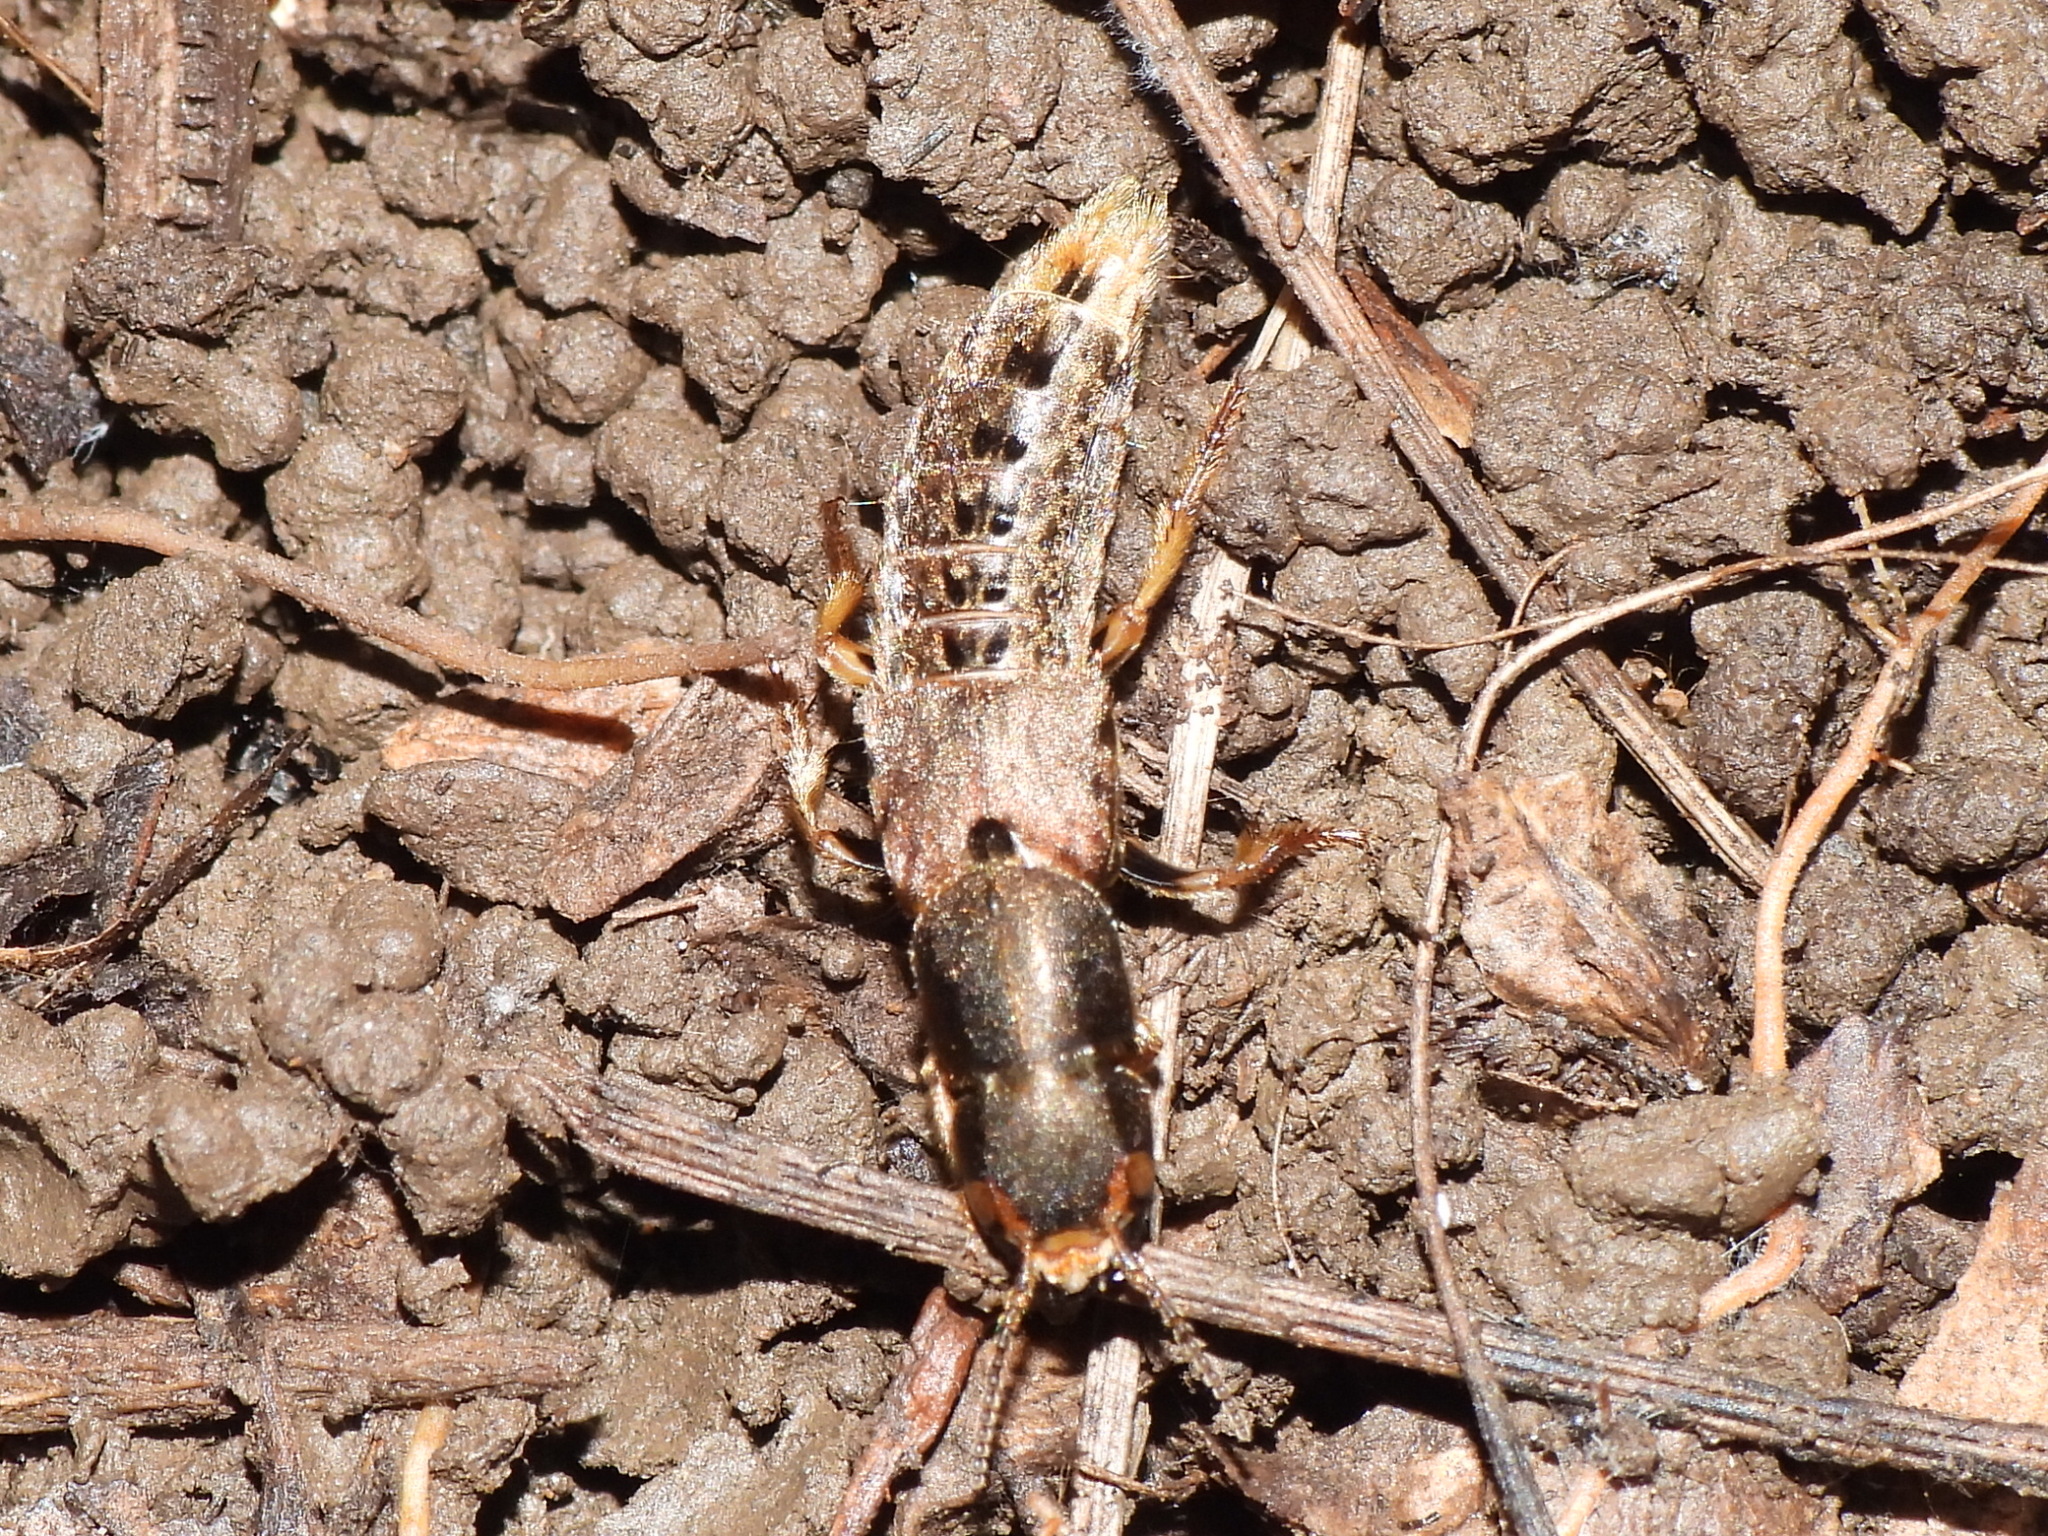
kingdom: Animalia
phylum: Arthropoda
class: Insecta
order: Coleoptera
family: Staphylinidae
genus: Platydracus
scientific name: Platydracus maculosus
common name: Brown rove beetle
